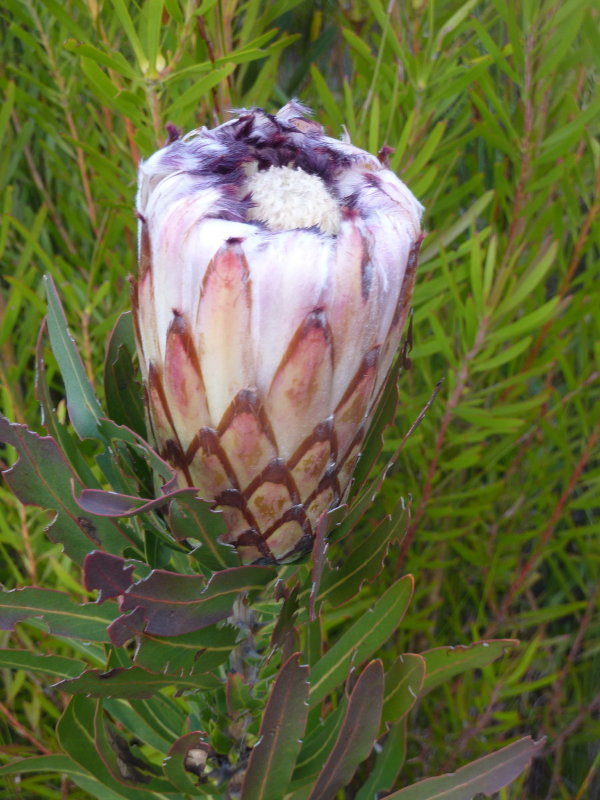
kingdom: Plantae
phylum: Tracheophyta
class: Magnoliopsida
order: Proteales
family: Proteaceae
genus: Protea
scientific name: Protea neriifolia
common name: Blue sugarbush
